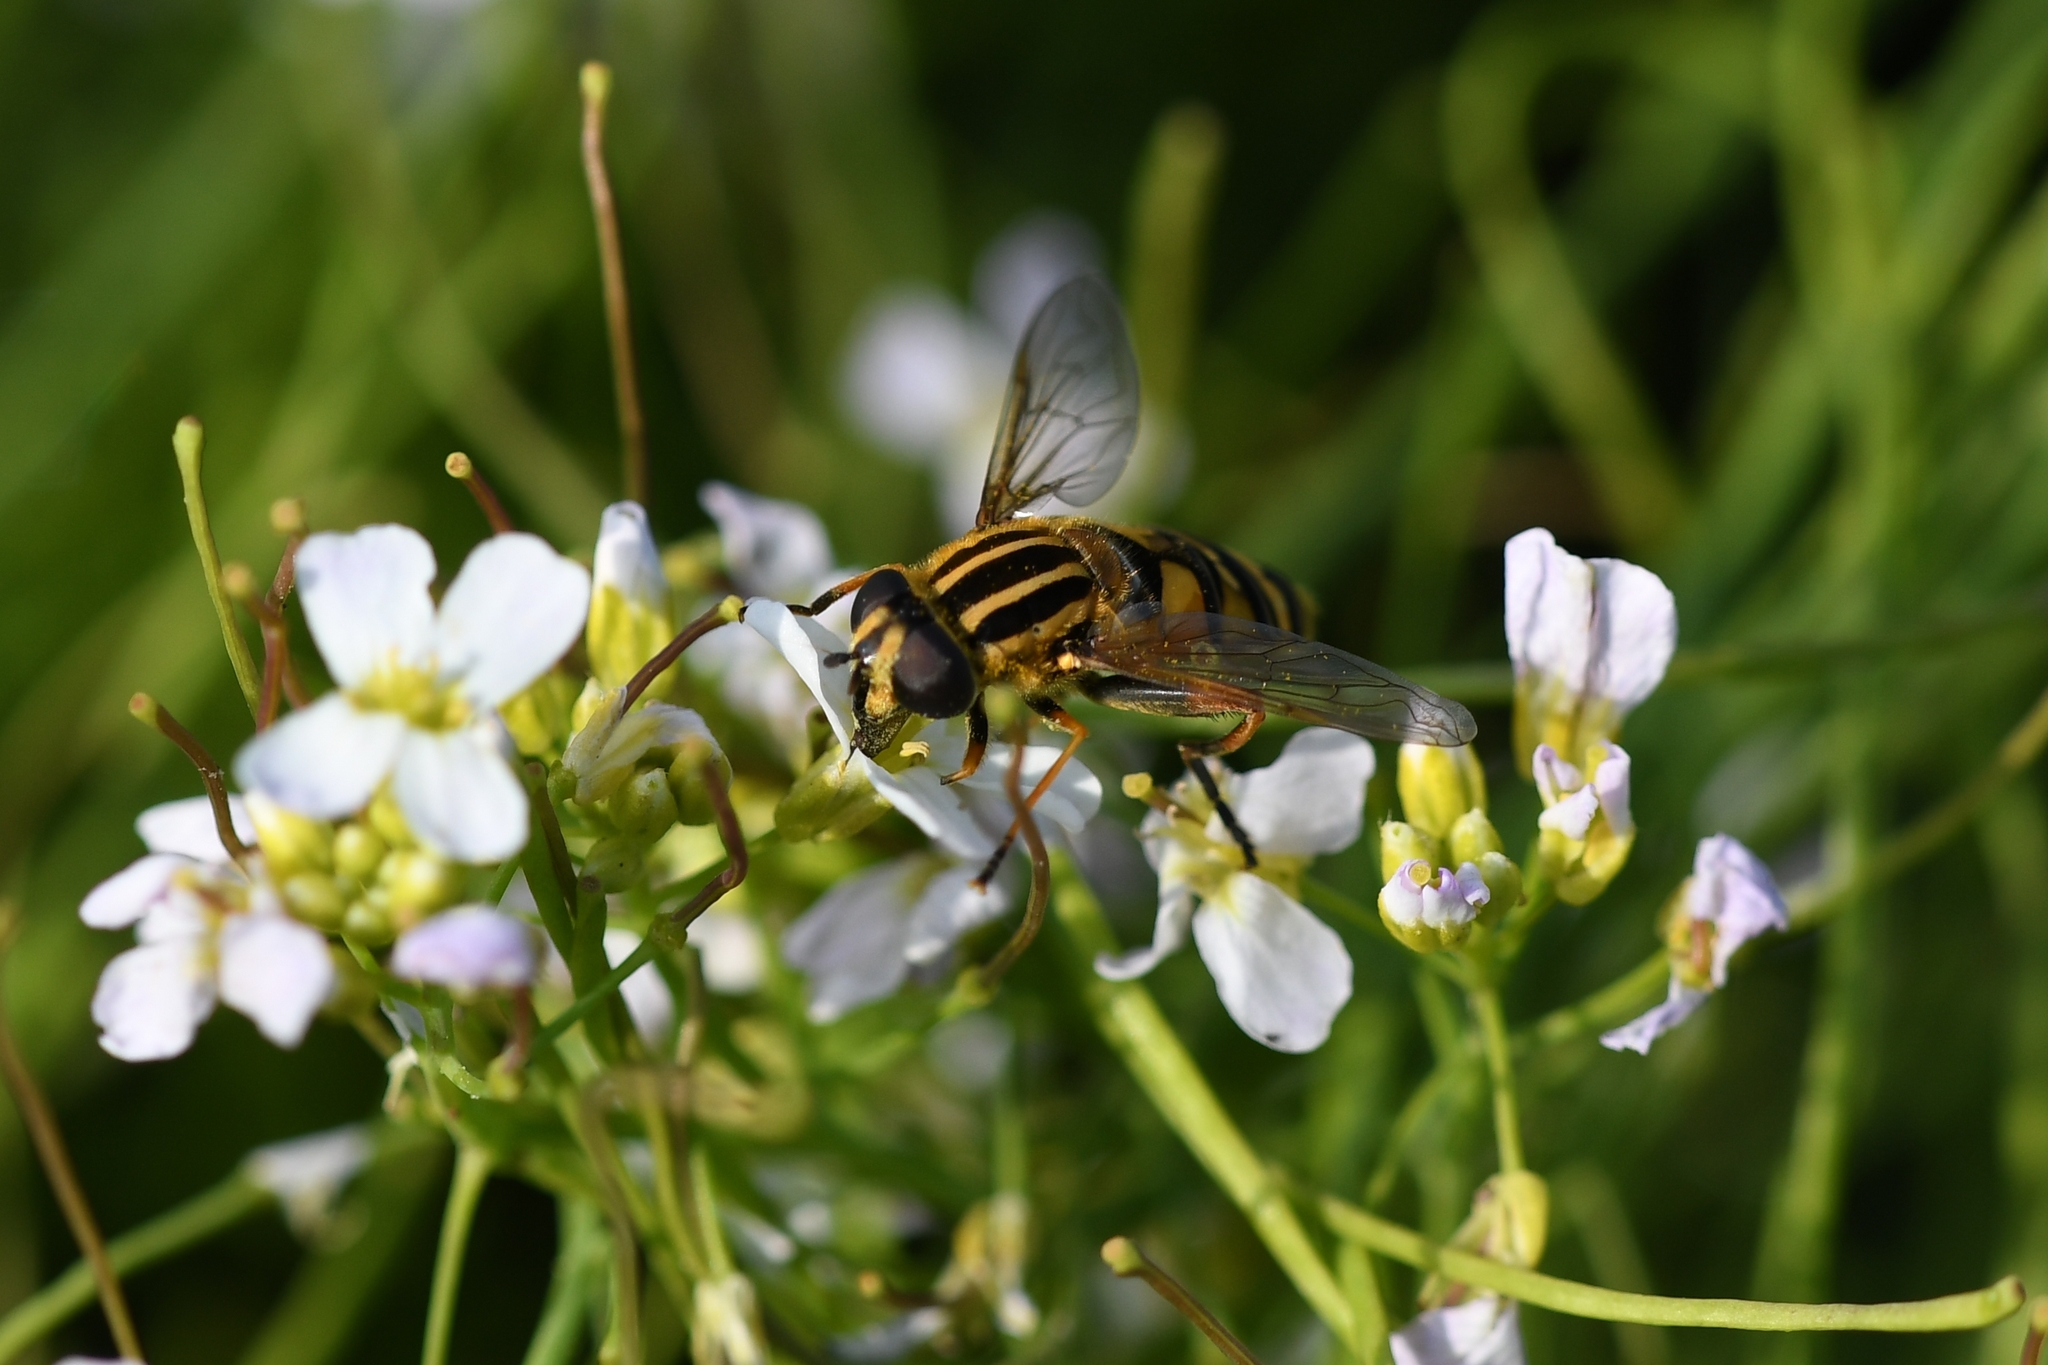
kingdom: Animalia
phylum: Arthropoda
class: Insecta
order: Diptera
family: Syrphidae
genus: Helophilus
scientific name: Helophilus pendulus
